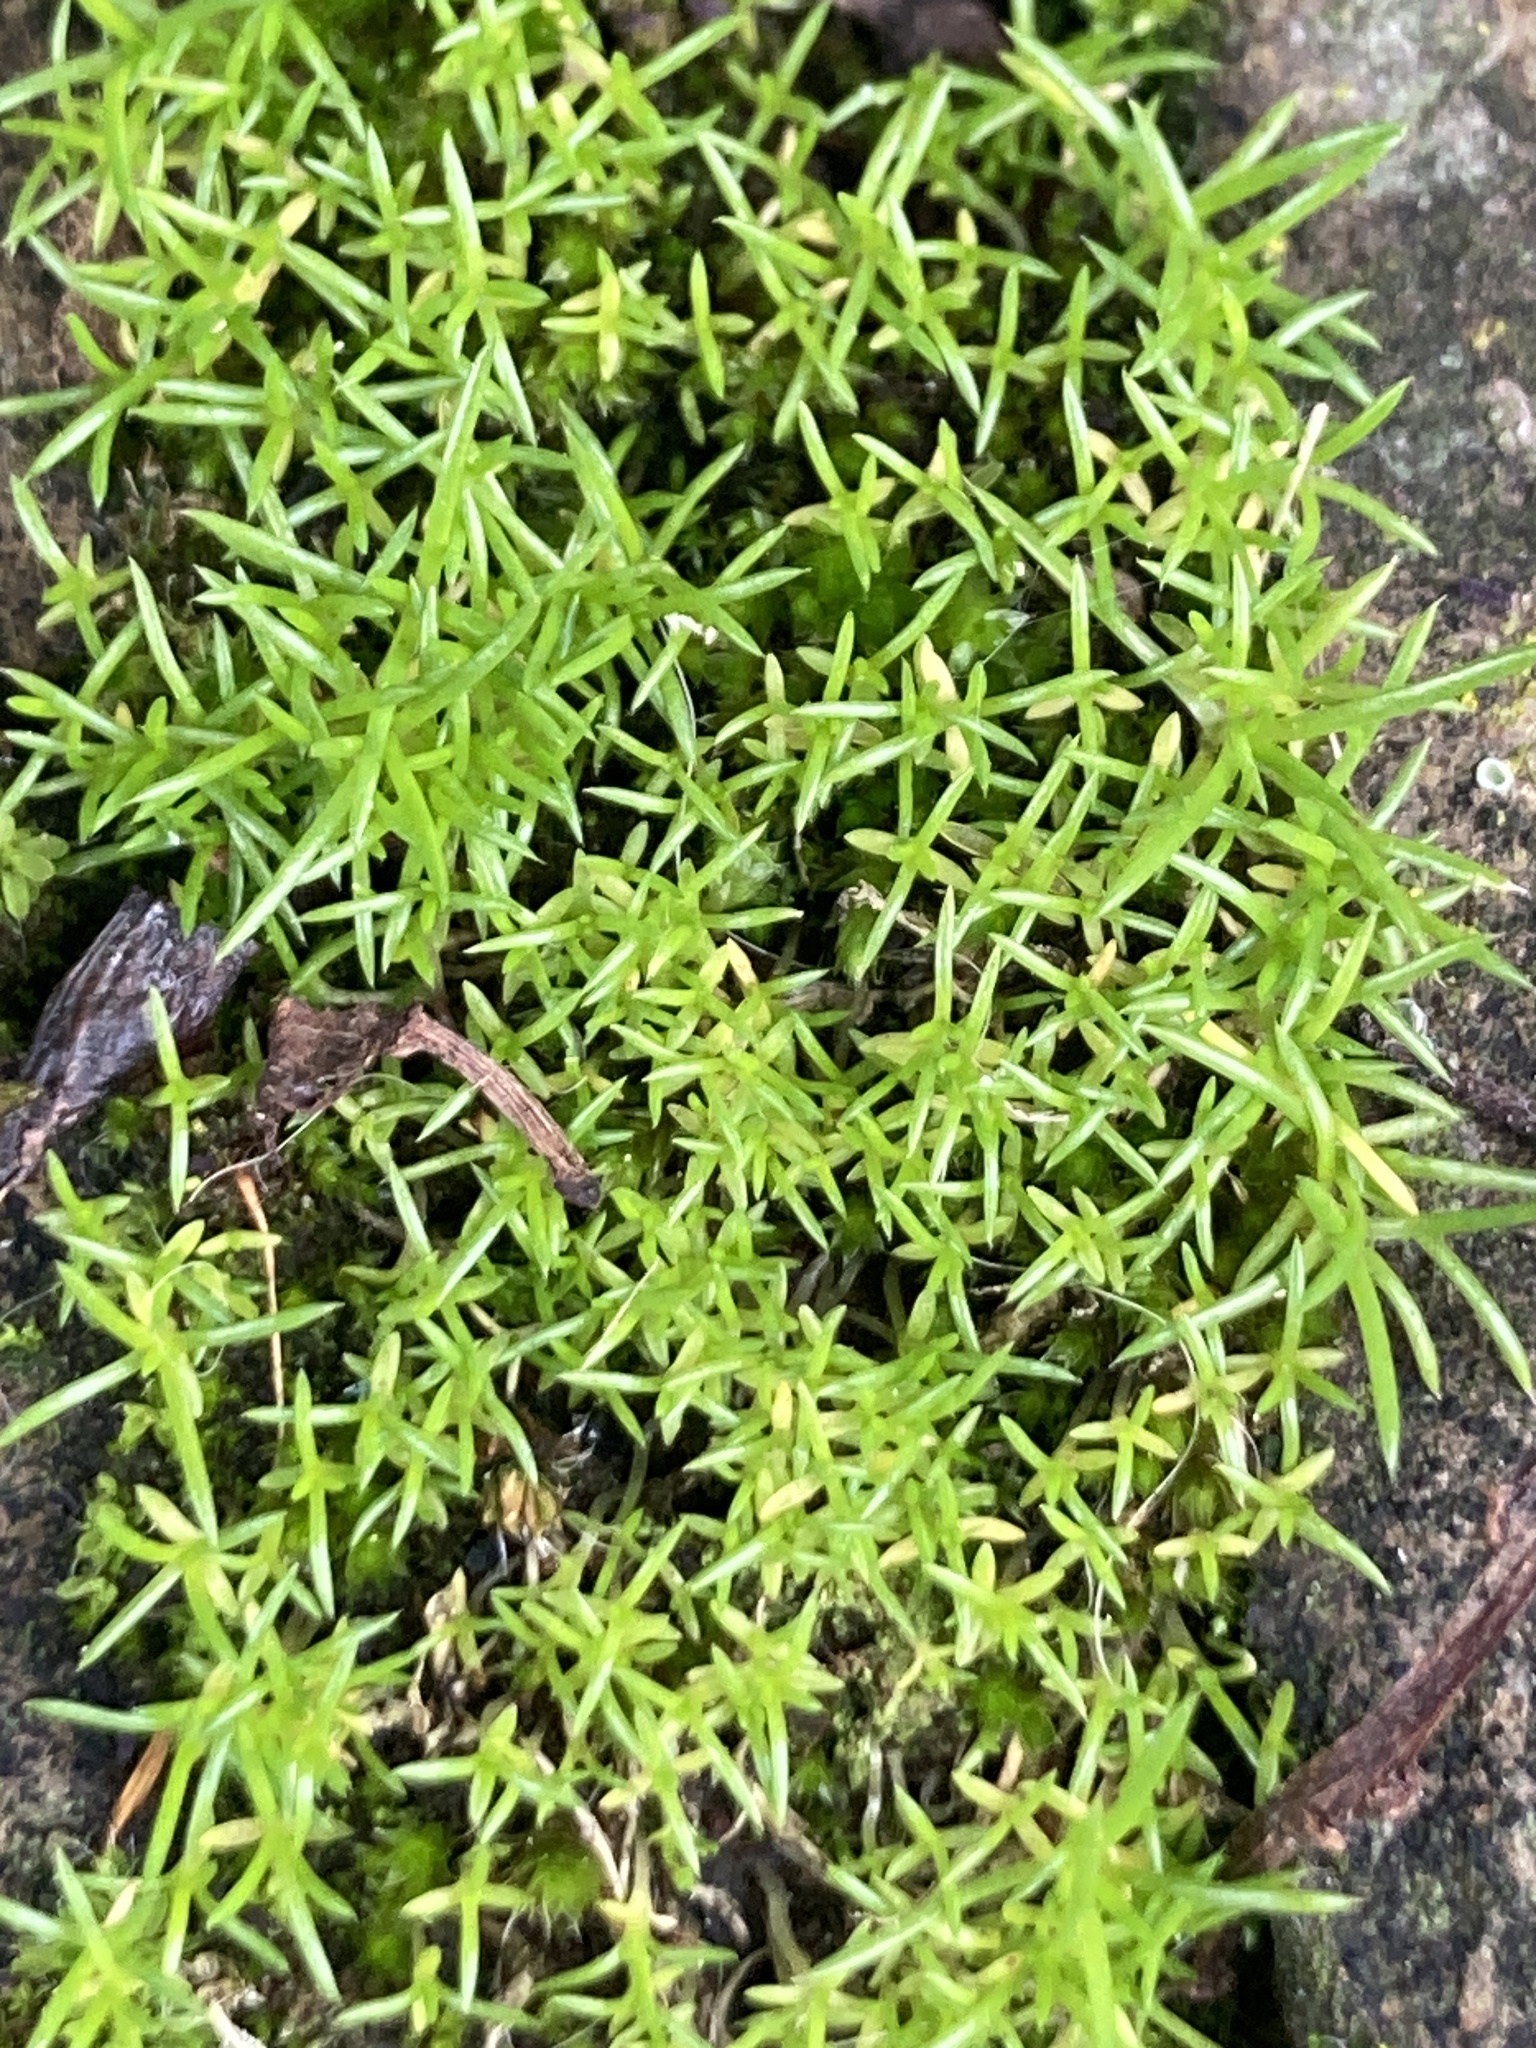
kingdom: Plantae
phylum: Tracheophyta
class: Magnoliopsida
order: Caryophyllales
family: Caryophyllaceae
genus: Sagina
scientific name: Sagina procumbens
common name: Procumbent pearlwort
